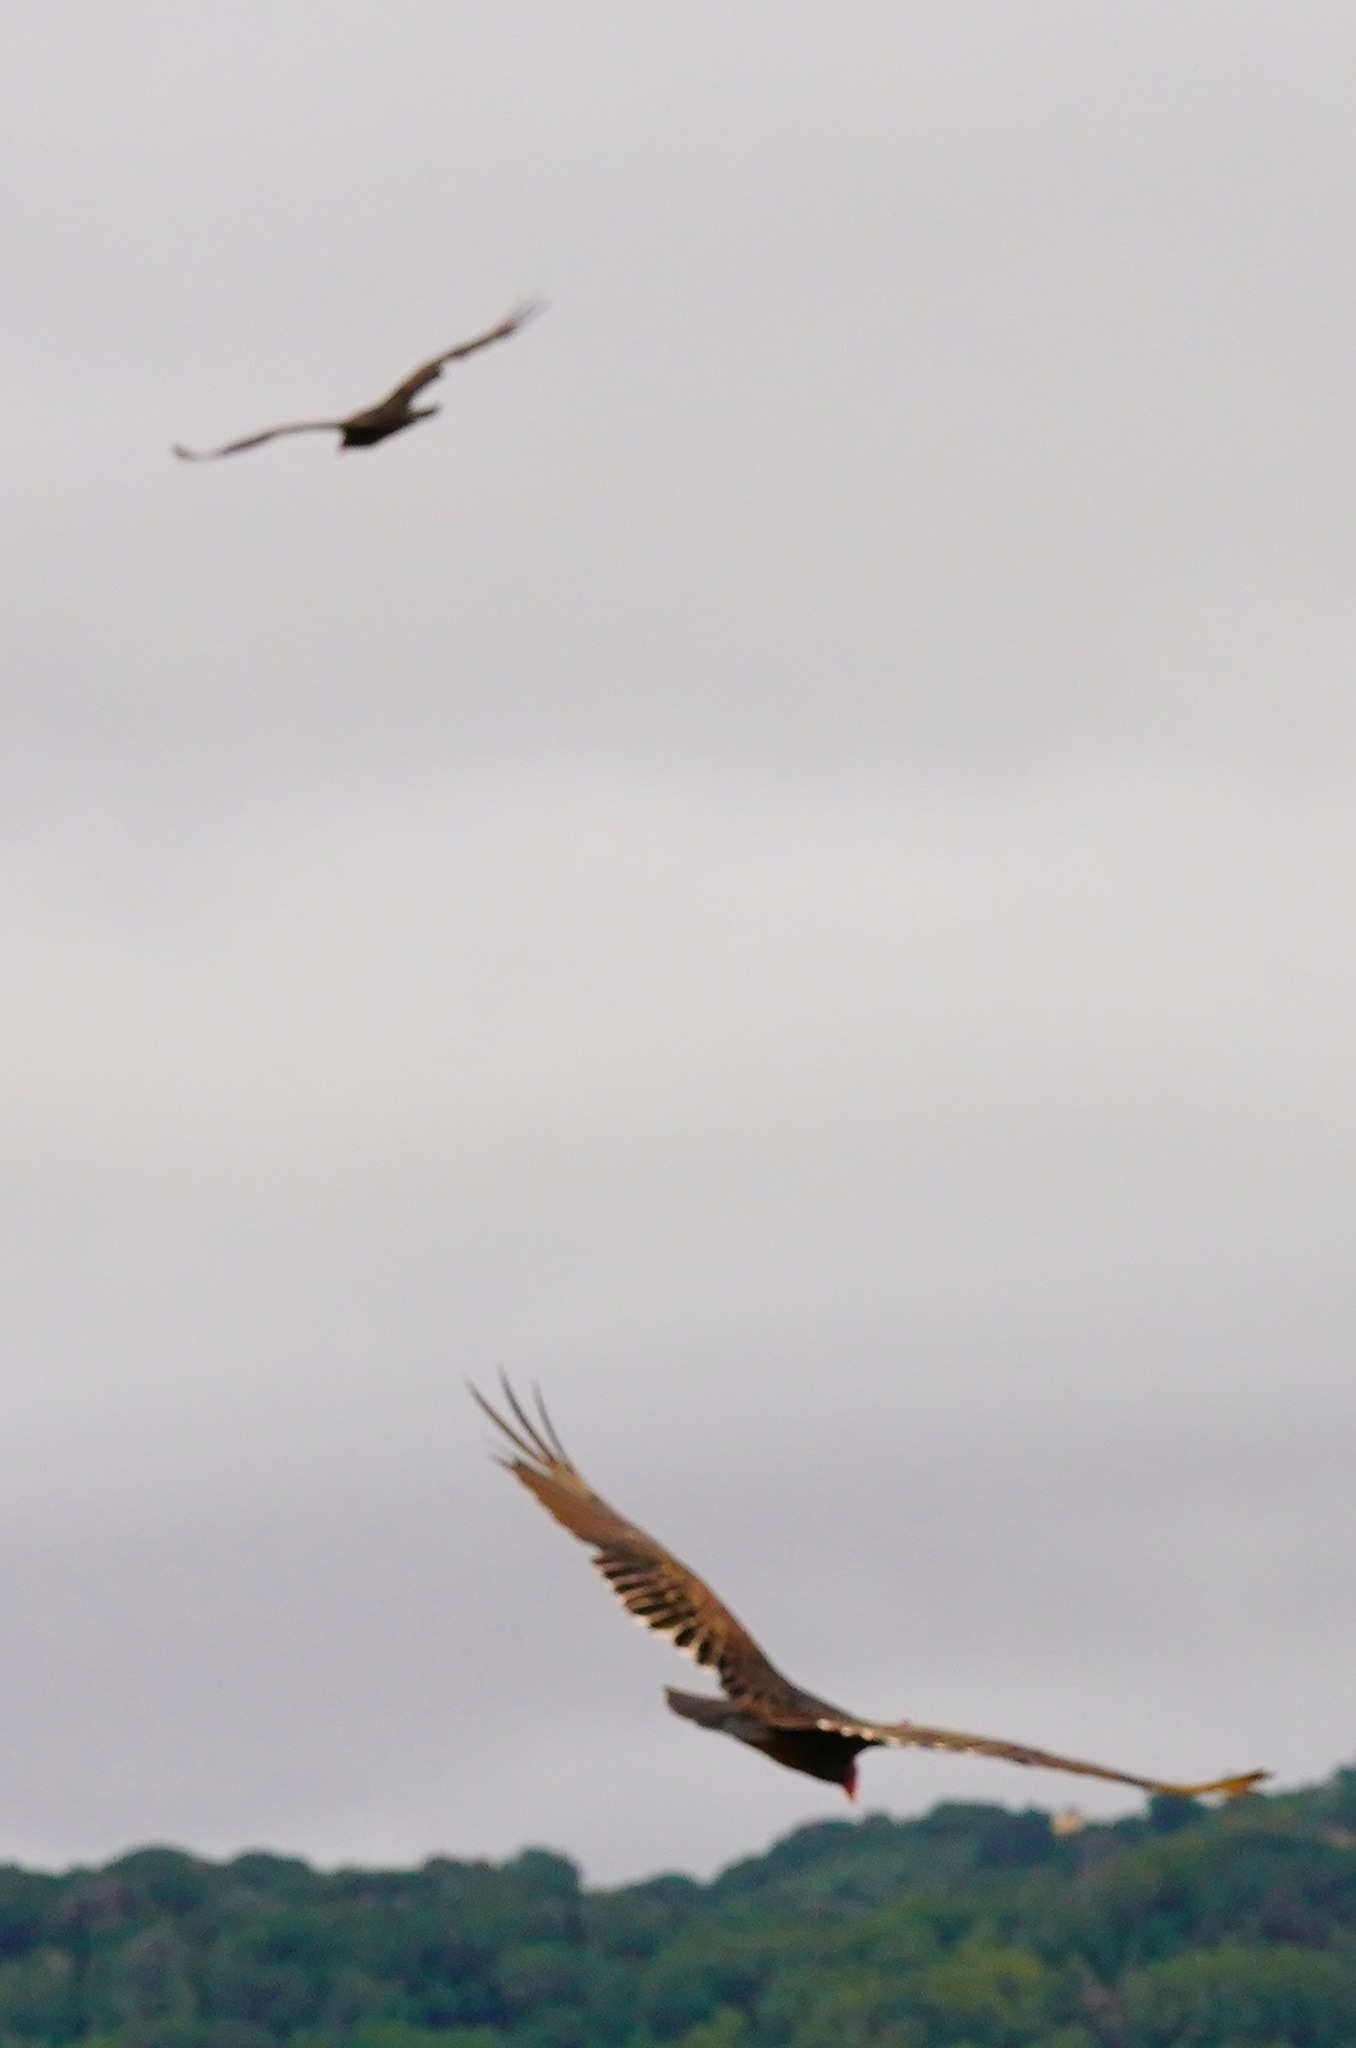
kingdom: Animalia
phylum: Chordata
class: Aves
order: Accipitriformes
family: Cathartidae
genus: Cathartes
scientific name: Cathartes aura
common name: Turkey vulture
